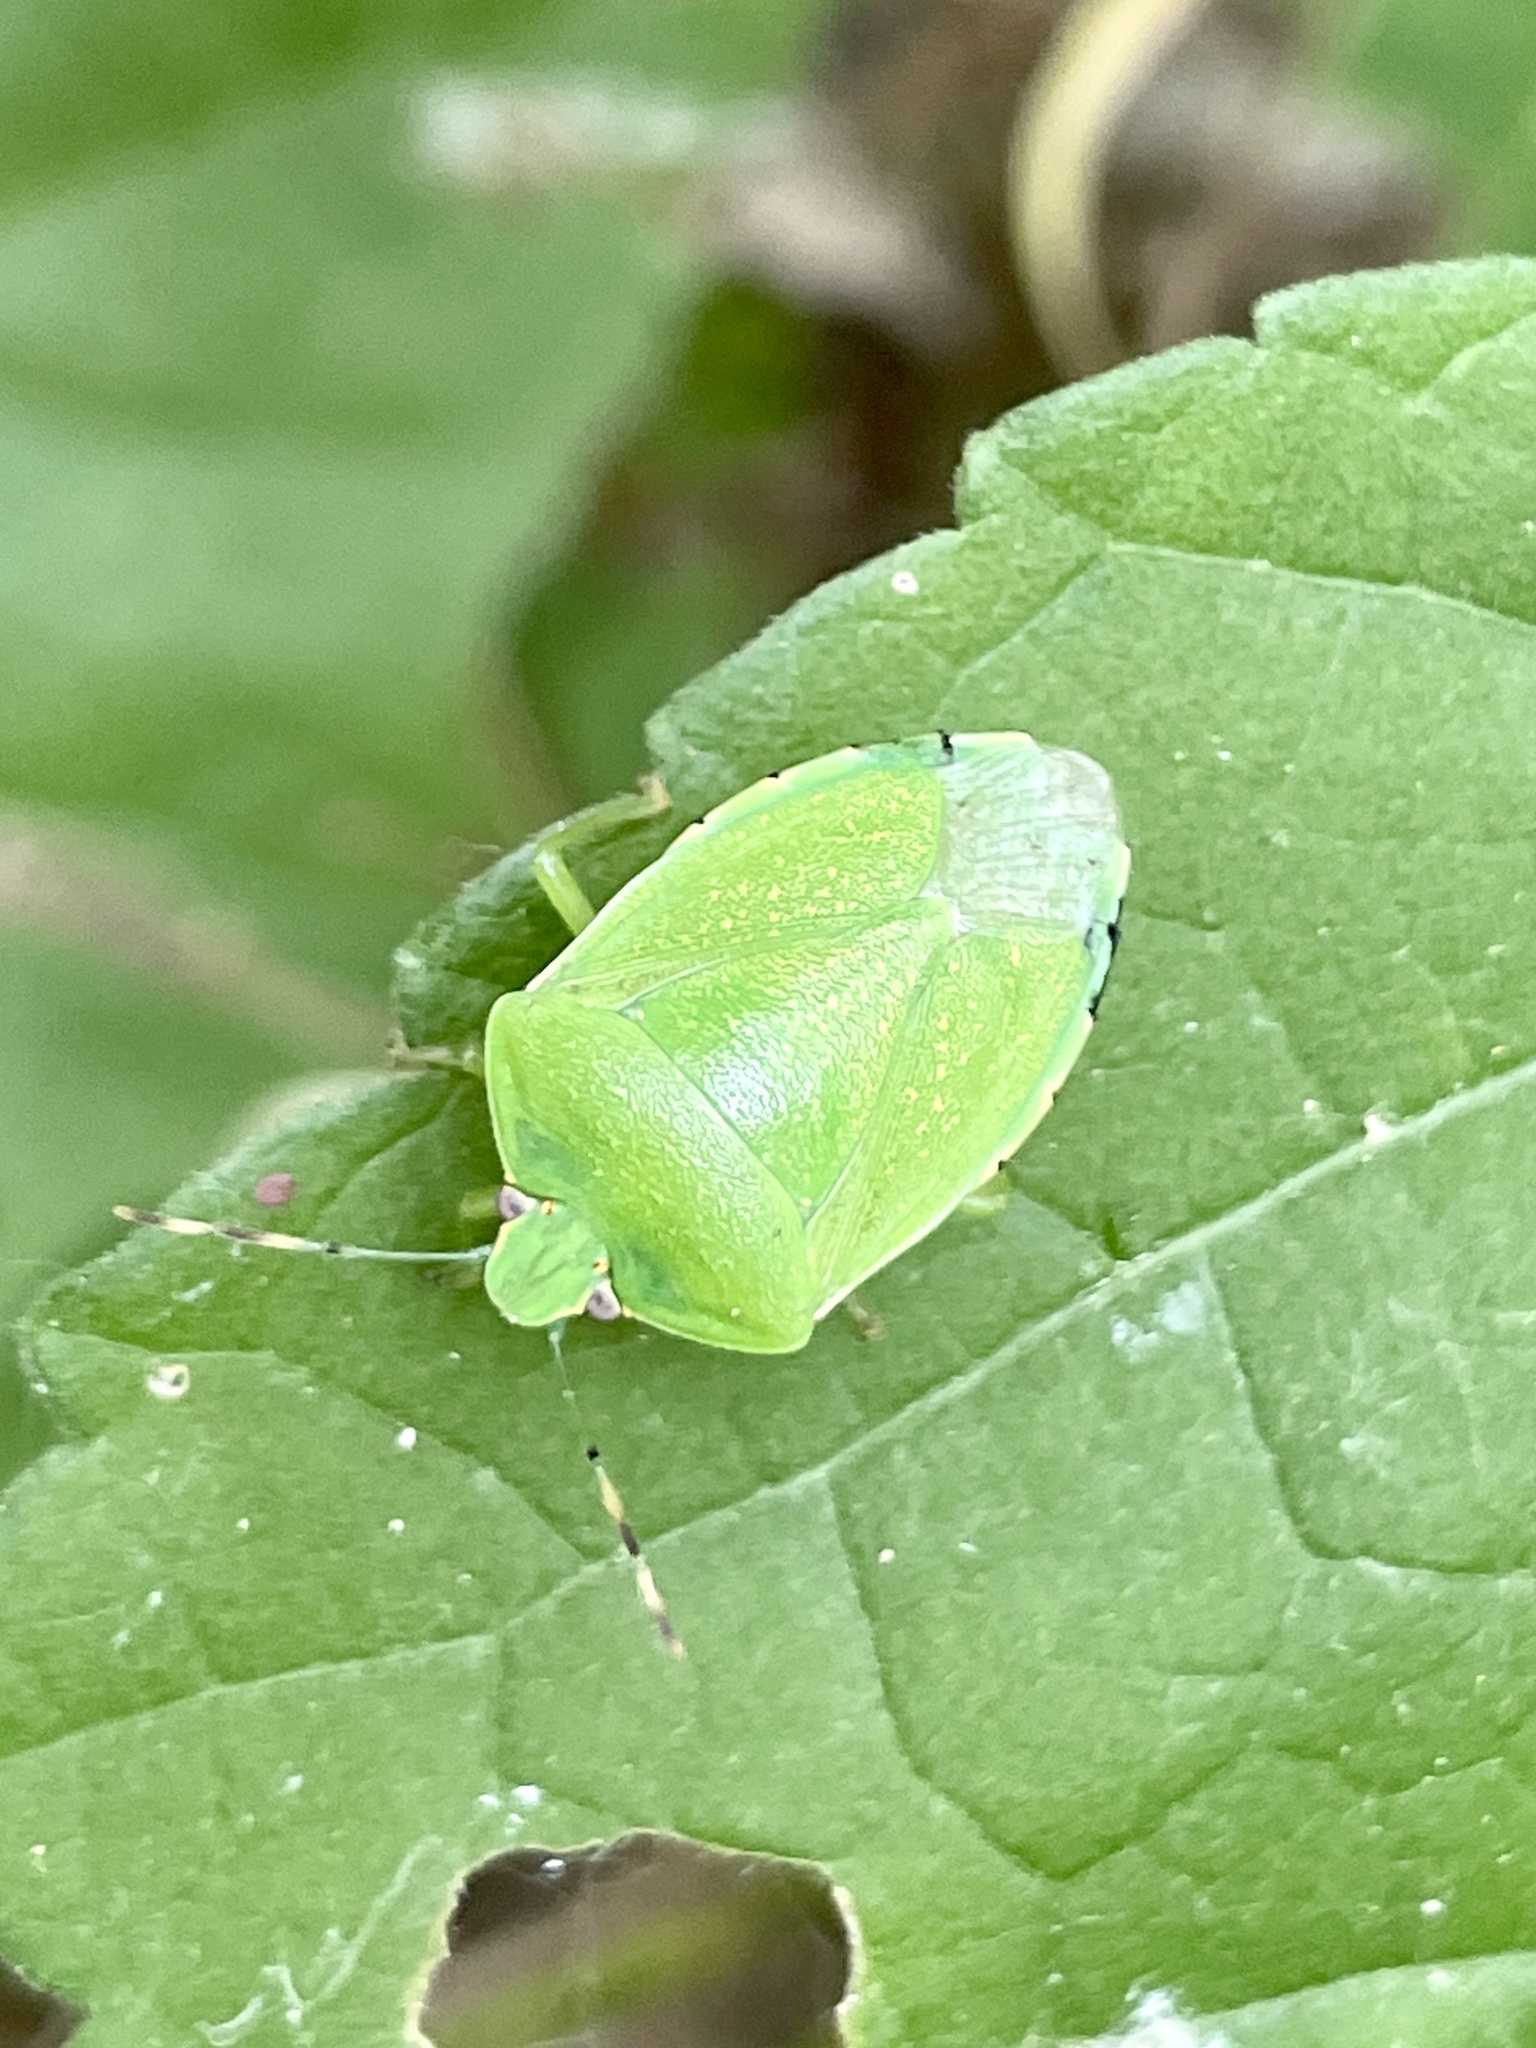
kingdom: Animalia
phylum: Arthropoda
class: Insecta
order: Hemiptera
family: Pentatomidae
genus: Chinavia
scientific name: Chinavia hilaris
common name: Green stink bug
